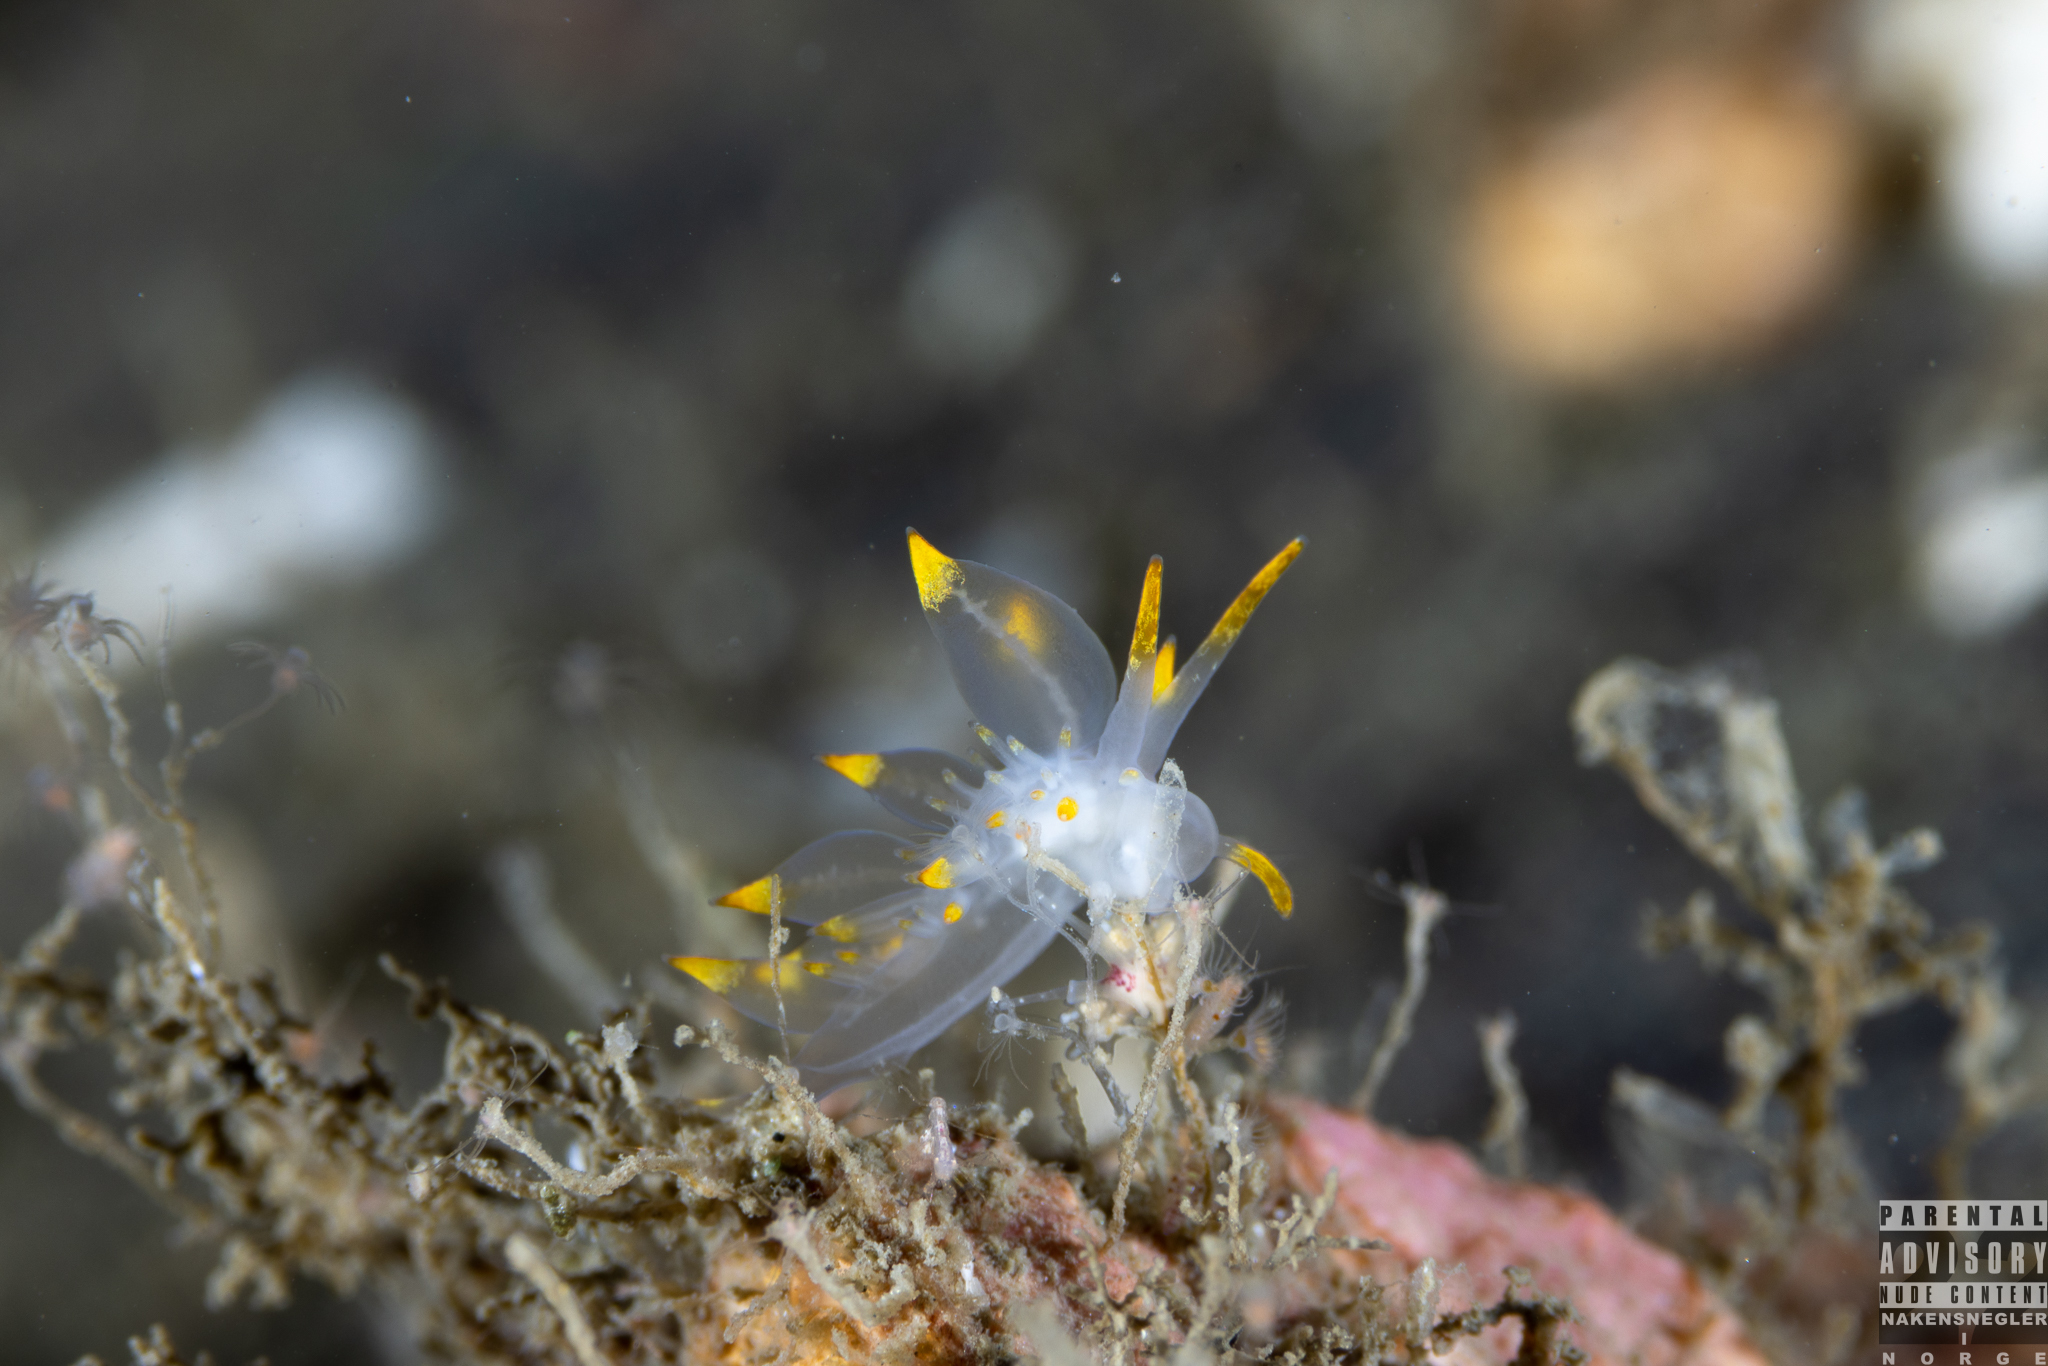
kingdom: Animalia
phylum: Mollusca
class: Gastropoda
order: Nudibranchia
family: Eubranchidae
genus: Amphorina
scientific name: Amphorina farrani
